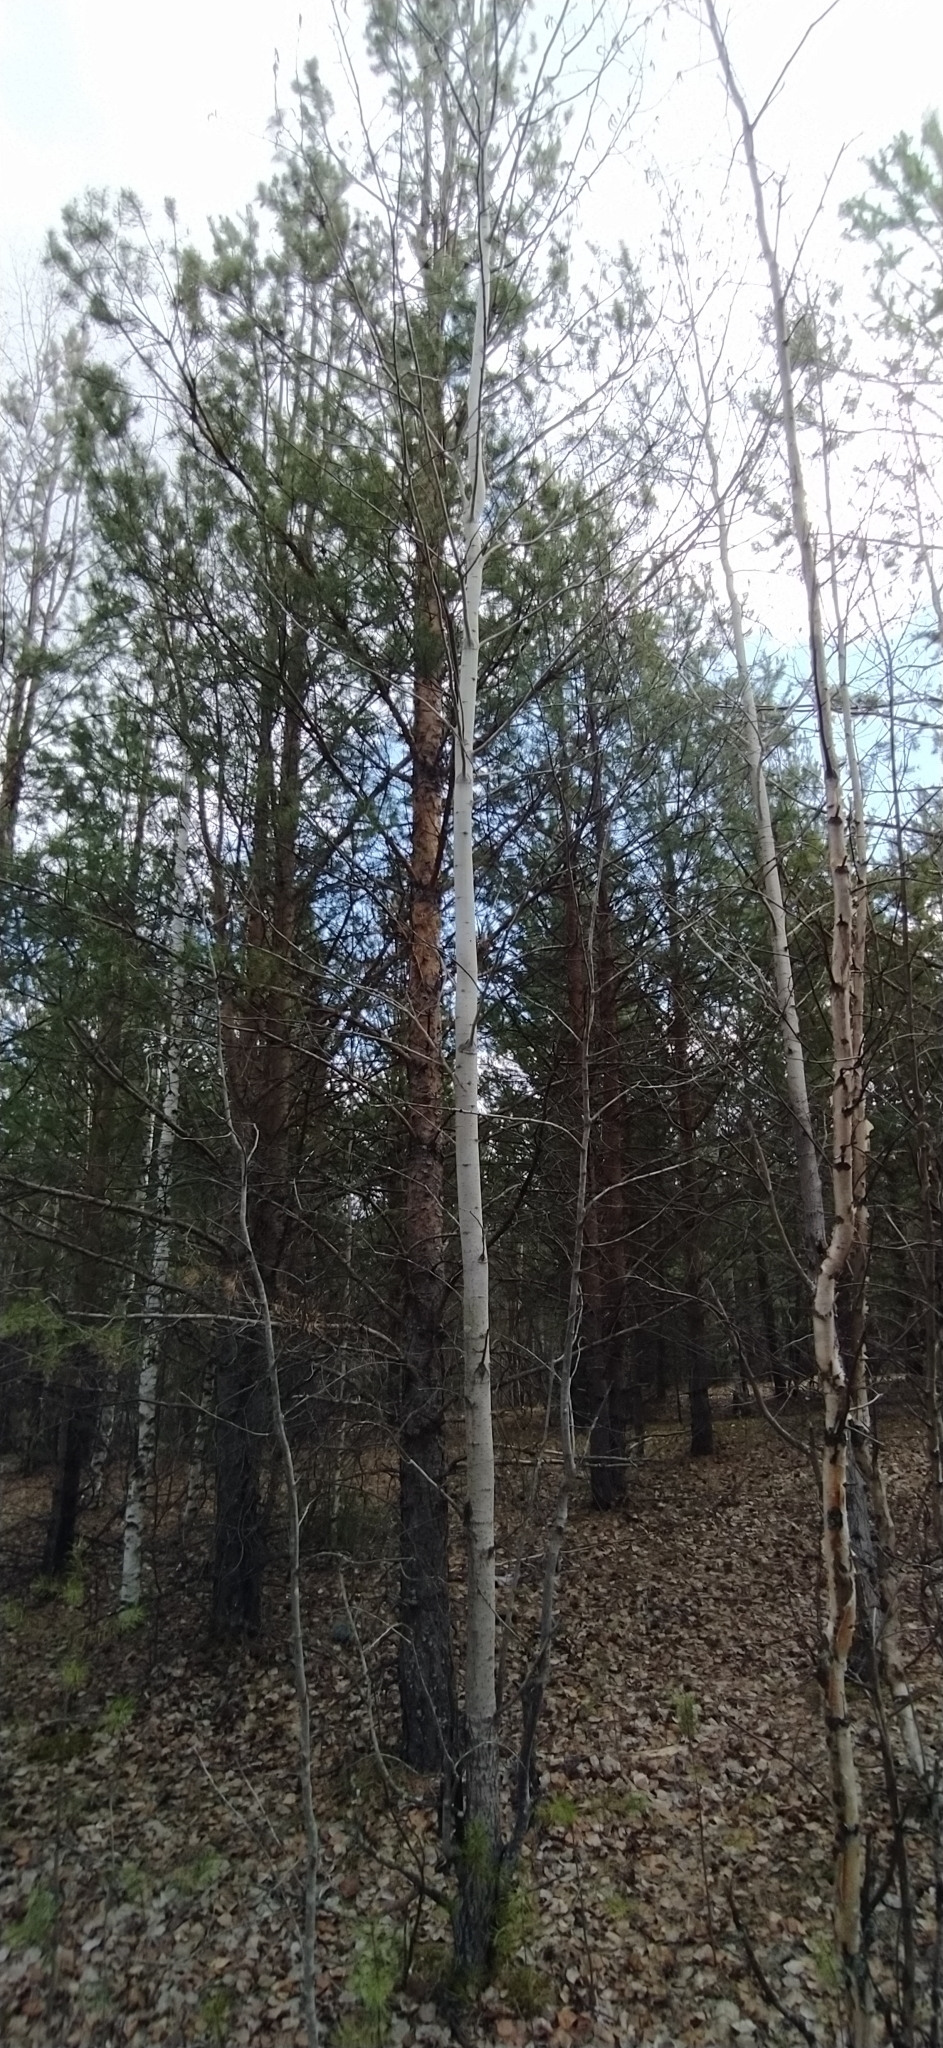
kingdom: Plantae
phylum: Tracheophyta
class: Magnoliopsida
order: Malpighiales
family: Salicaceae
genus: Populus
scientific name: Populus tremula
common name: European aspen
